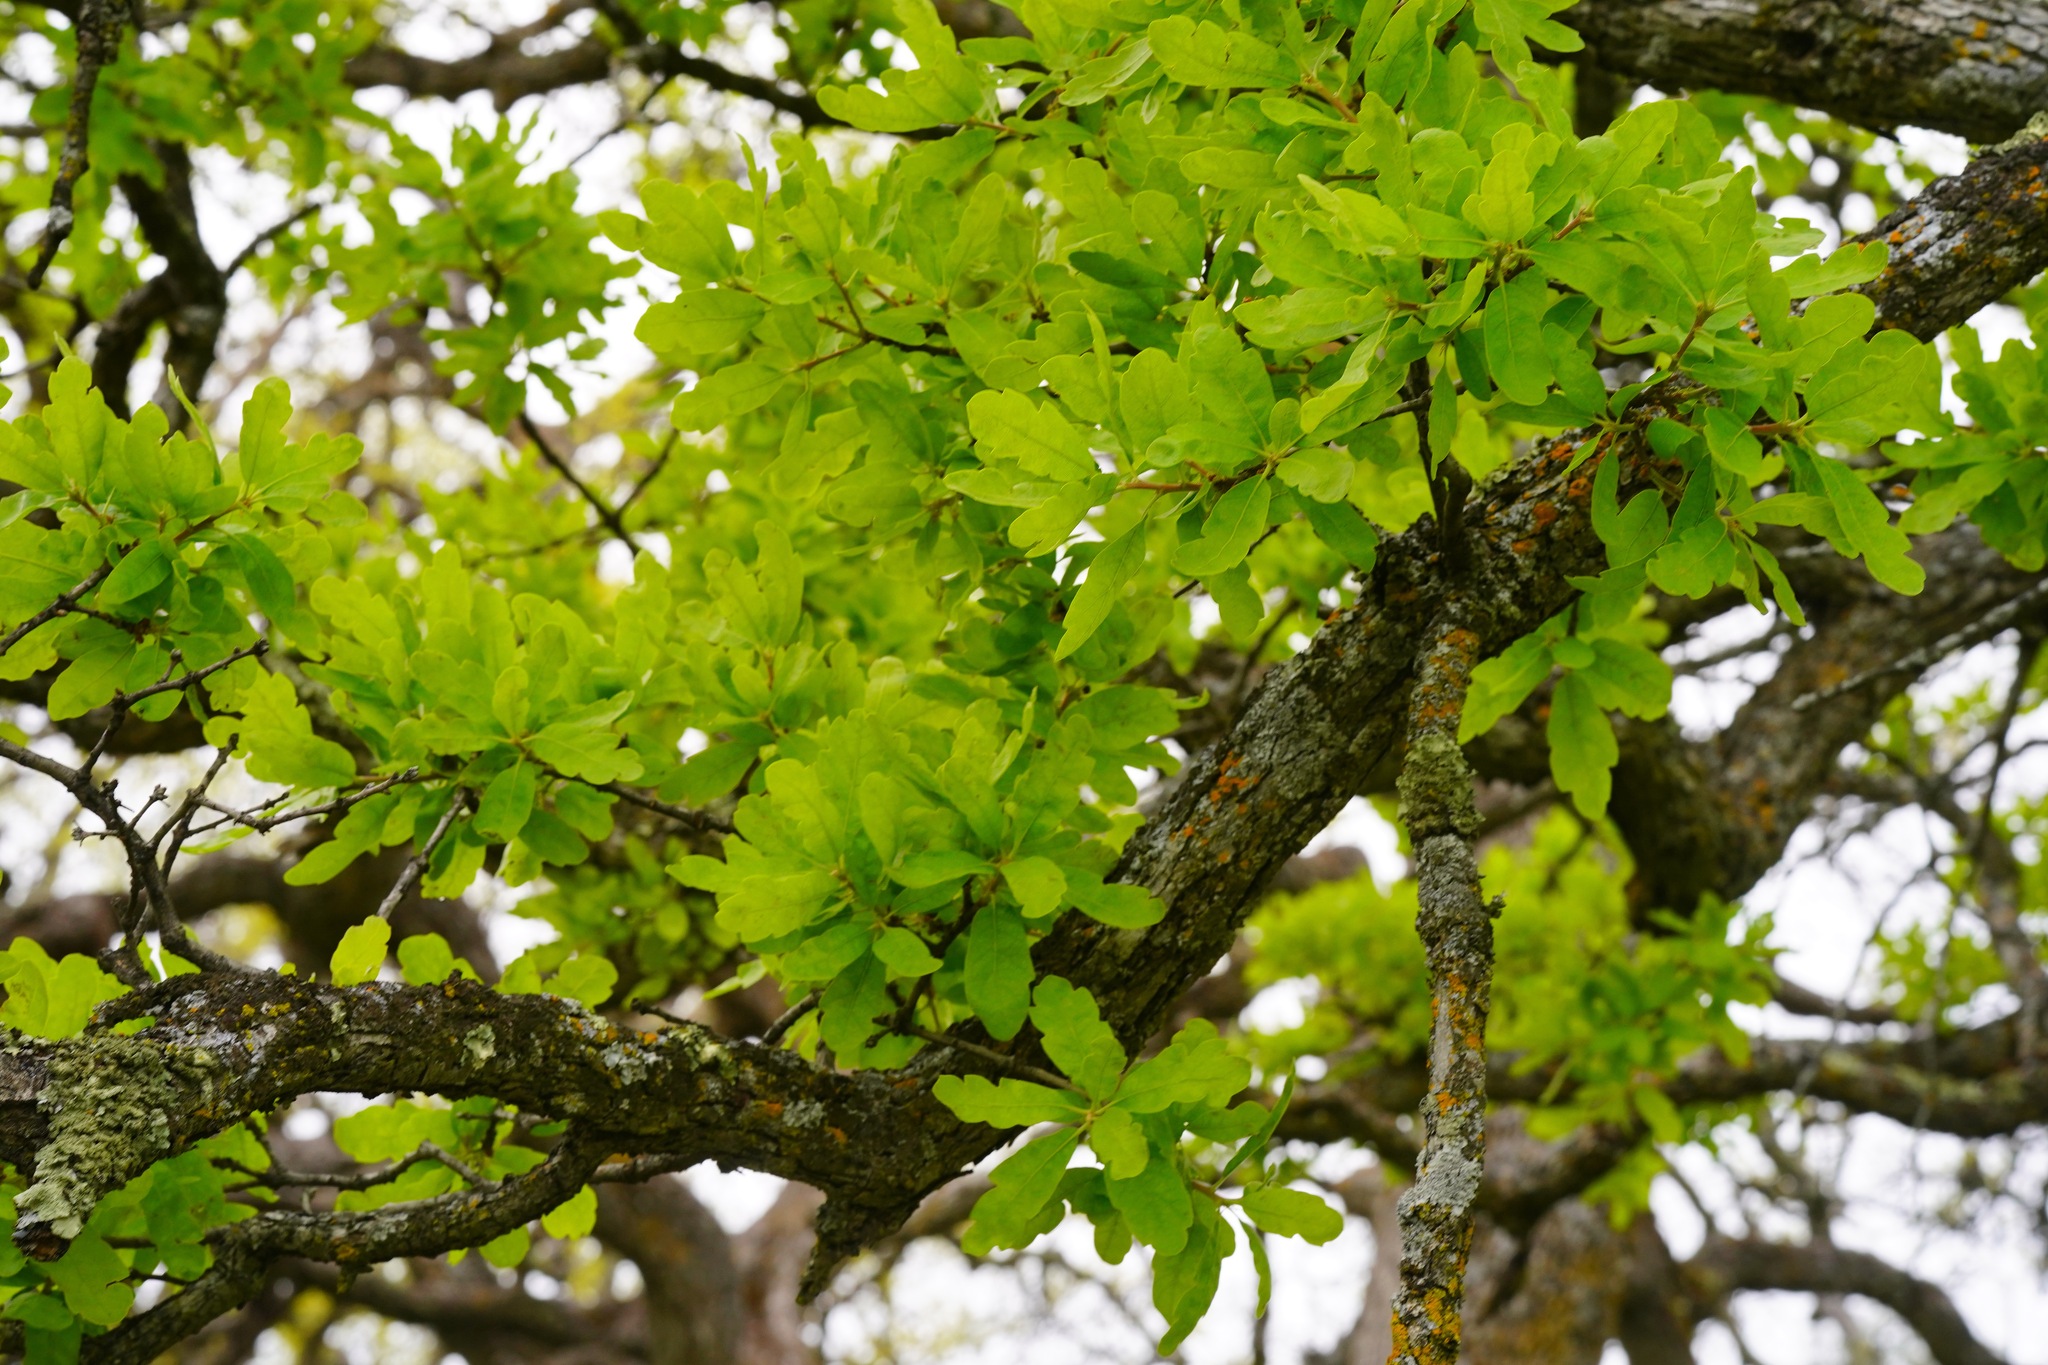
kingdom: Plantae
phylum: Tracheophyta
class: Magnoliopsida
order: Fagales
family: Fagaceae
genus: Quercus
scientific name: Quercus douglasii
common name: Blue oak
